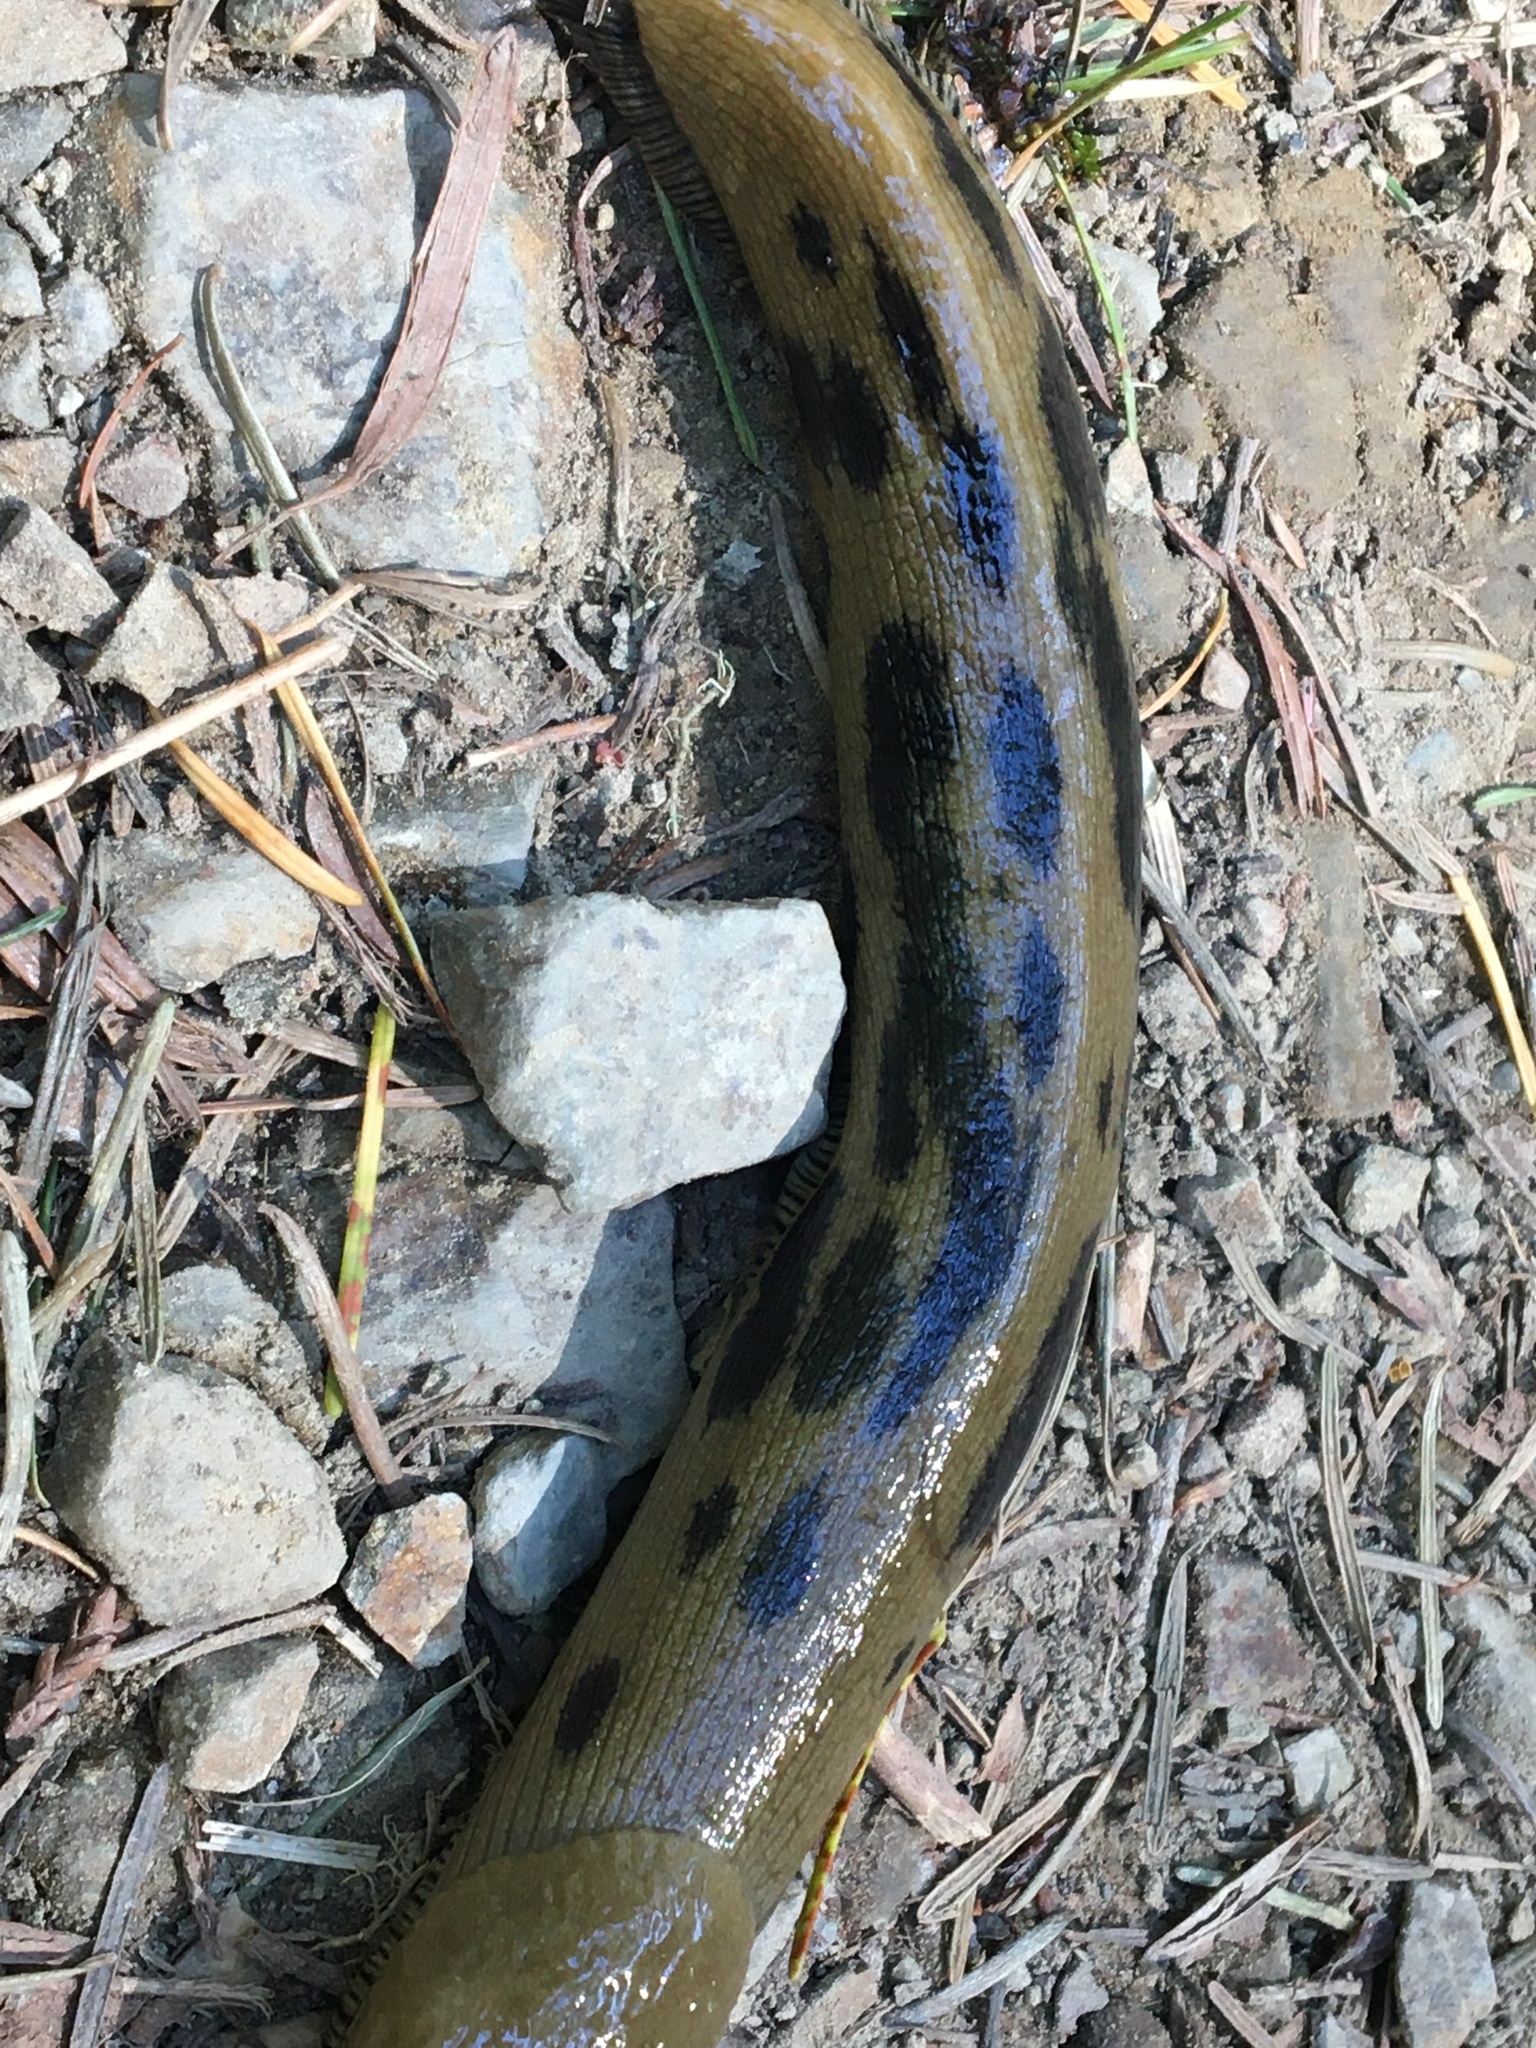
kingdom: Animalia
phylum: Mollusca
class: Gastropoda
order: Stylommatophora
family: Ariolimacidae
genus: Ariolimax
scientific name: Ariolimax buttoni
